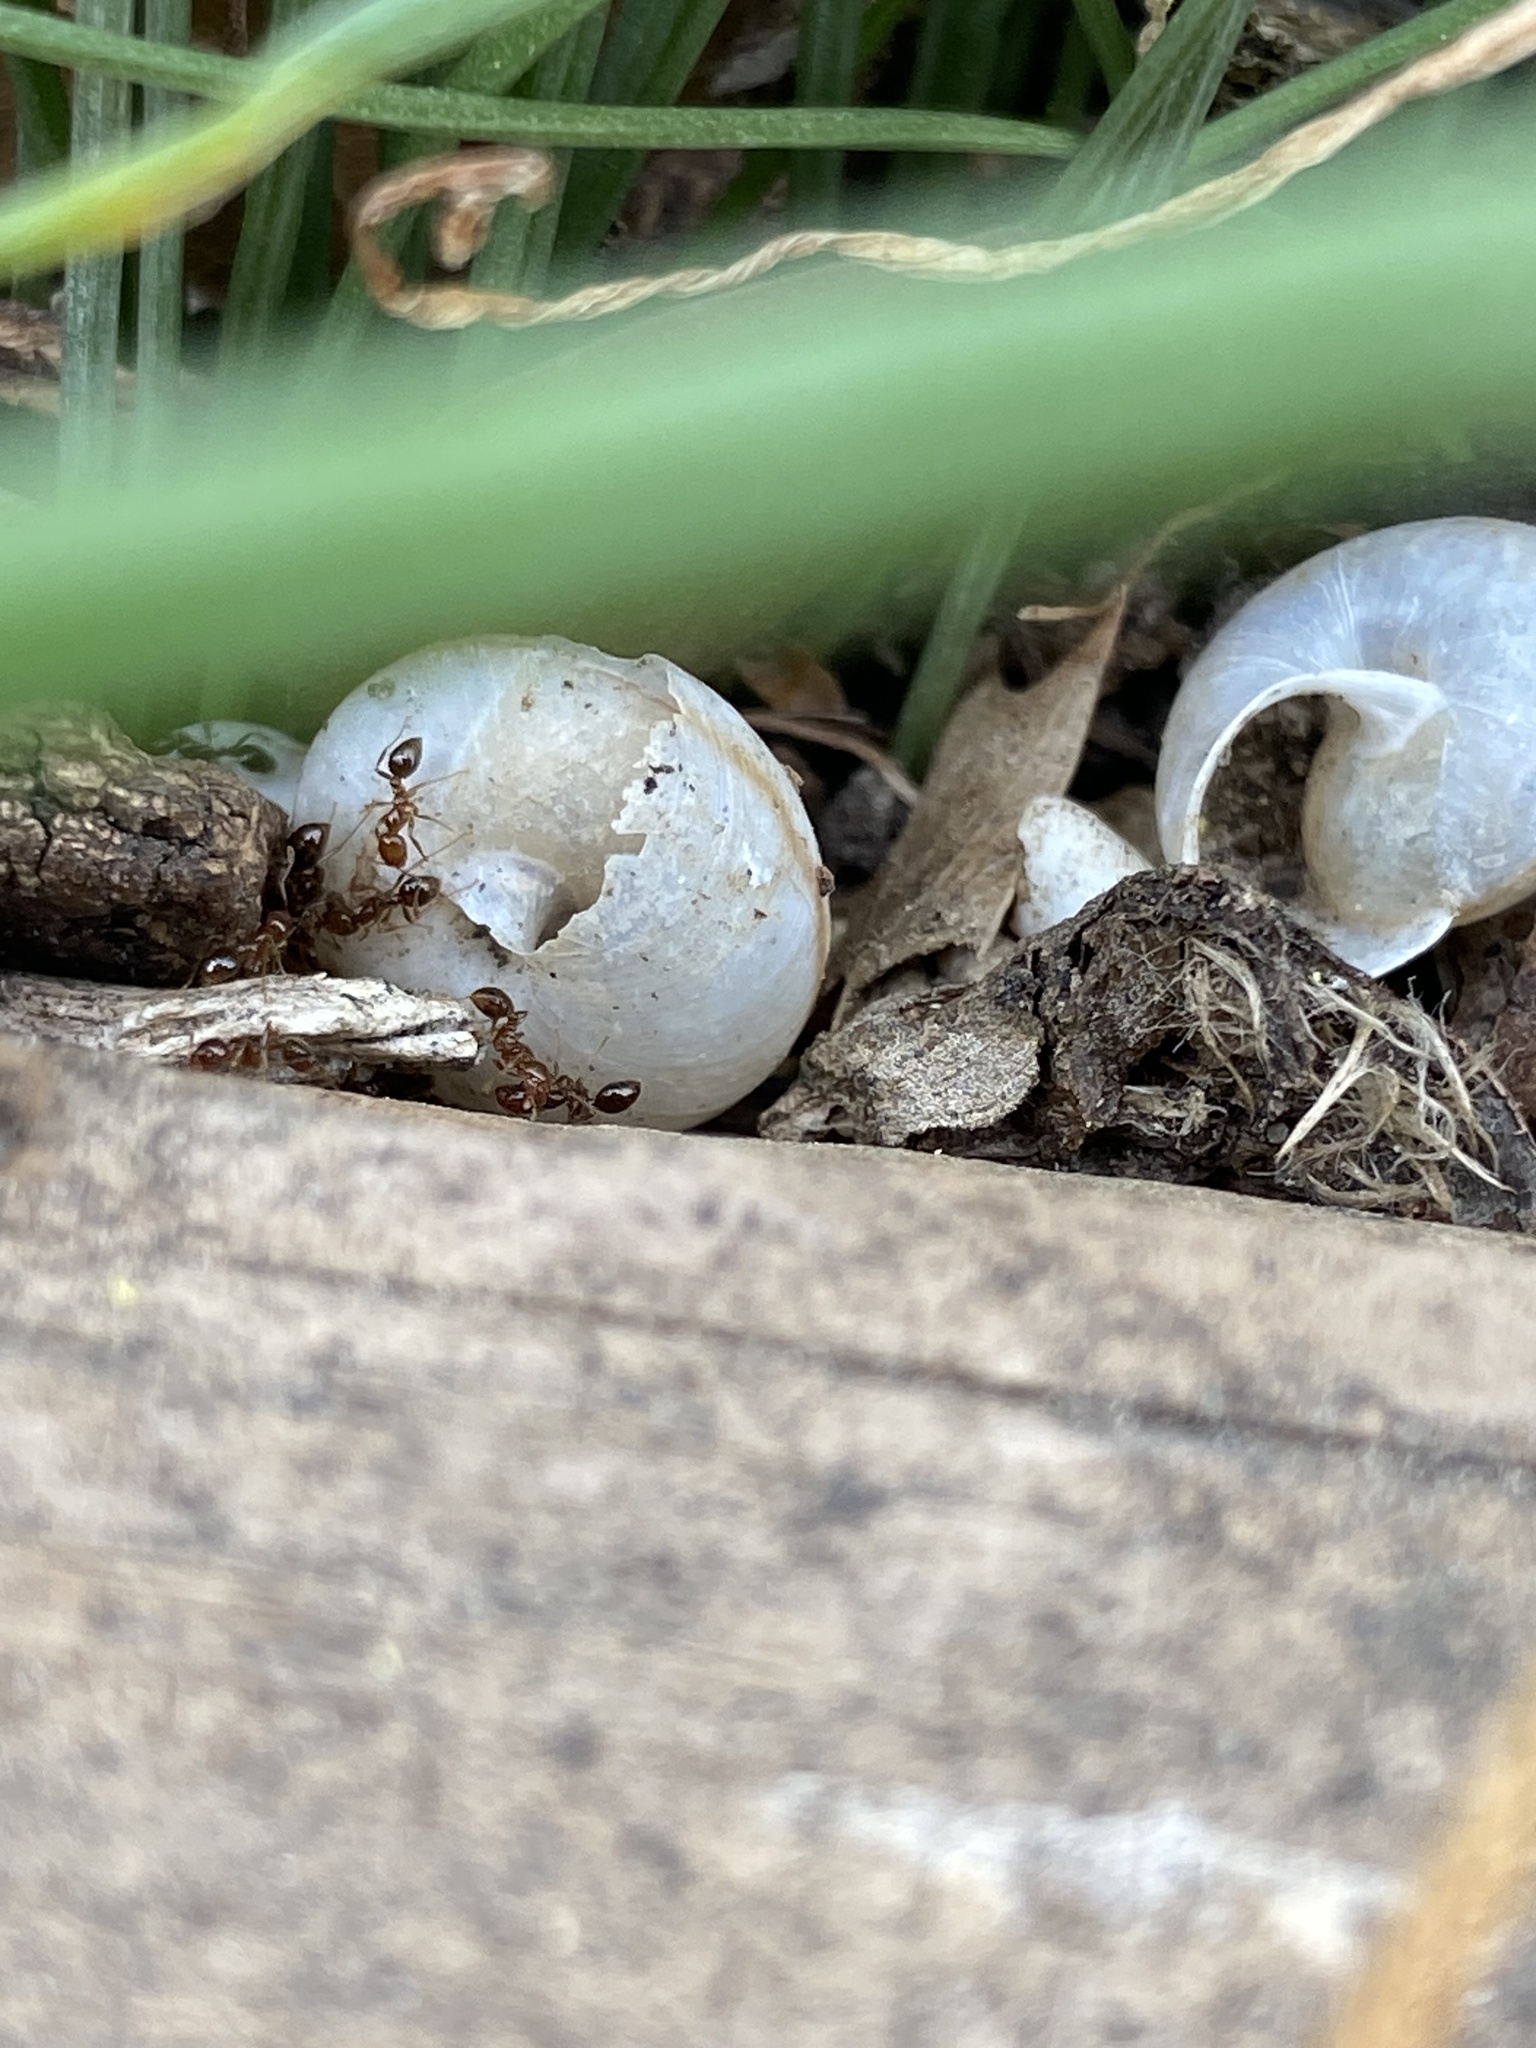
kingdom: Animalia
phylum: Arthropoda
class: Insecta
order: Hymenoptera
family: Formicidae
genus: Solenopsis
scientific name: Solenopsis invicta
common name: Red imported fire ant
